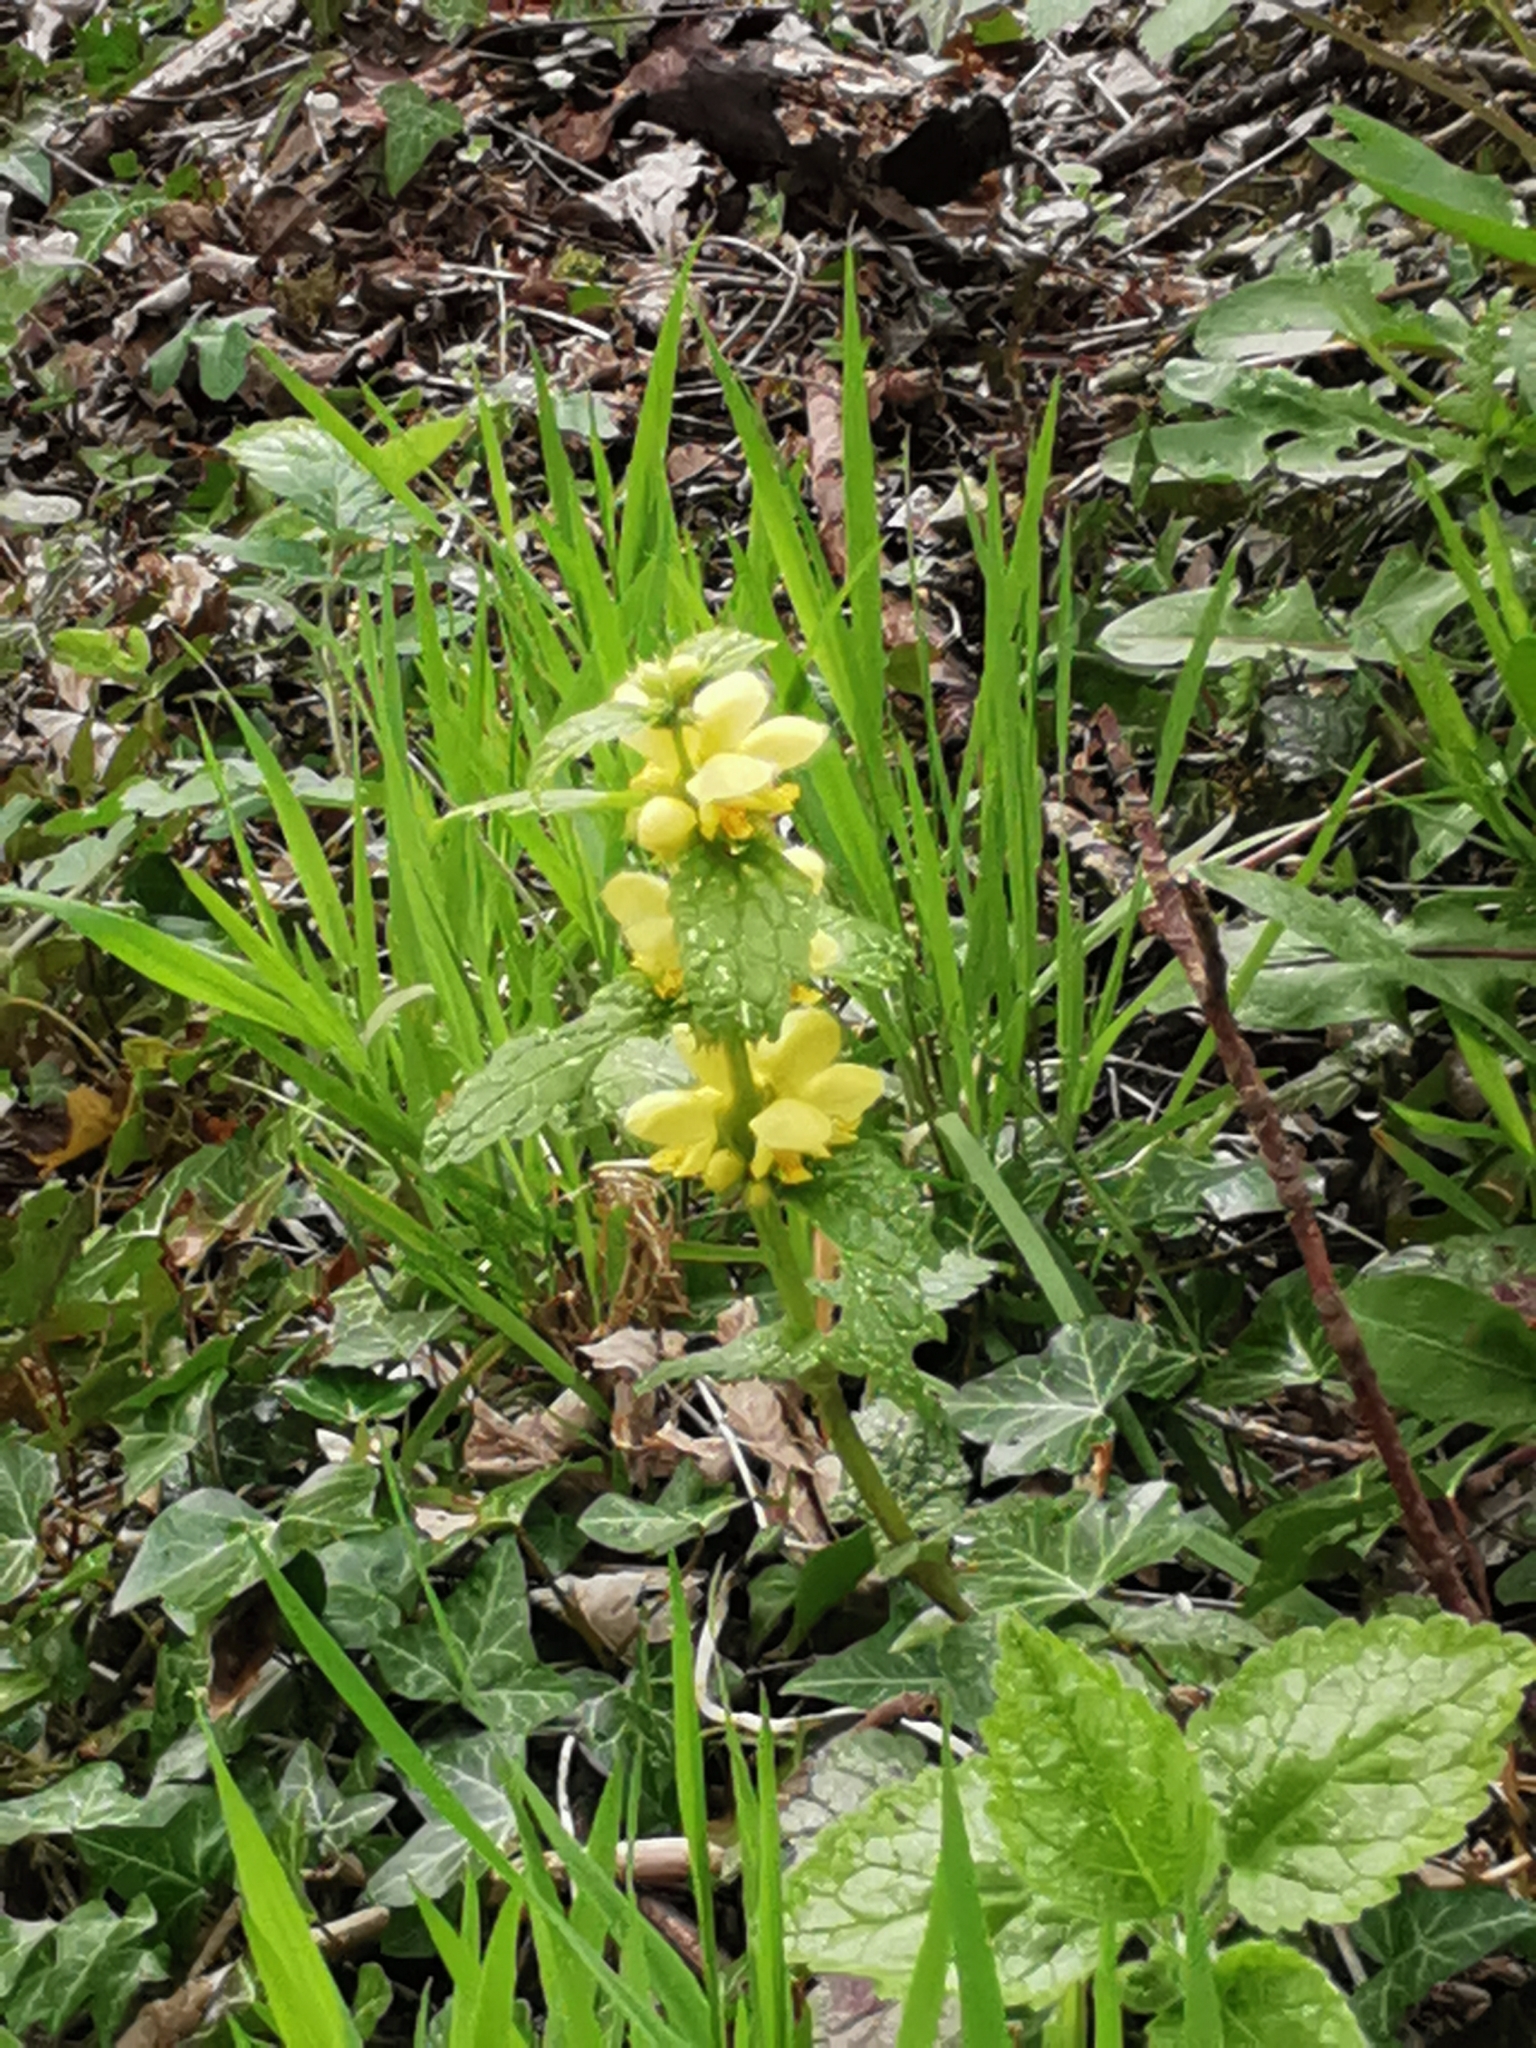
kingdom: Plantae
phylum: Tracheophyta
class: Magnoliopsida
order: Lamiales
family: Lamiaceae
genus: Lamium
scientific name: Lamium galeobdolon
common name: Yellow archangel
